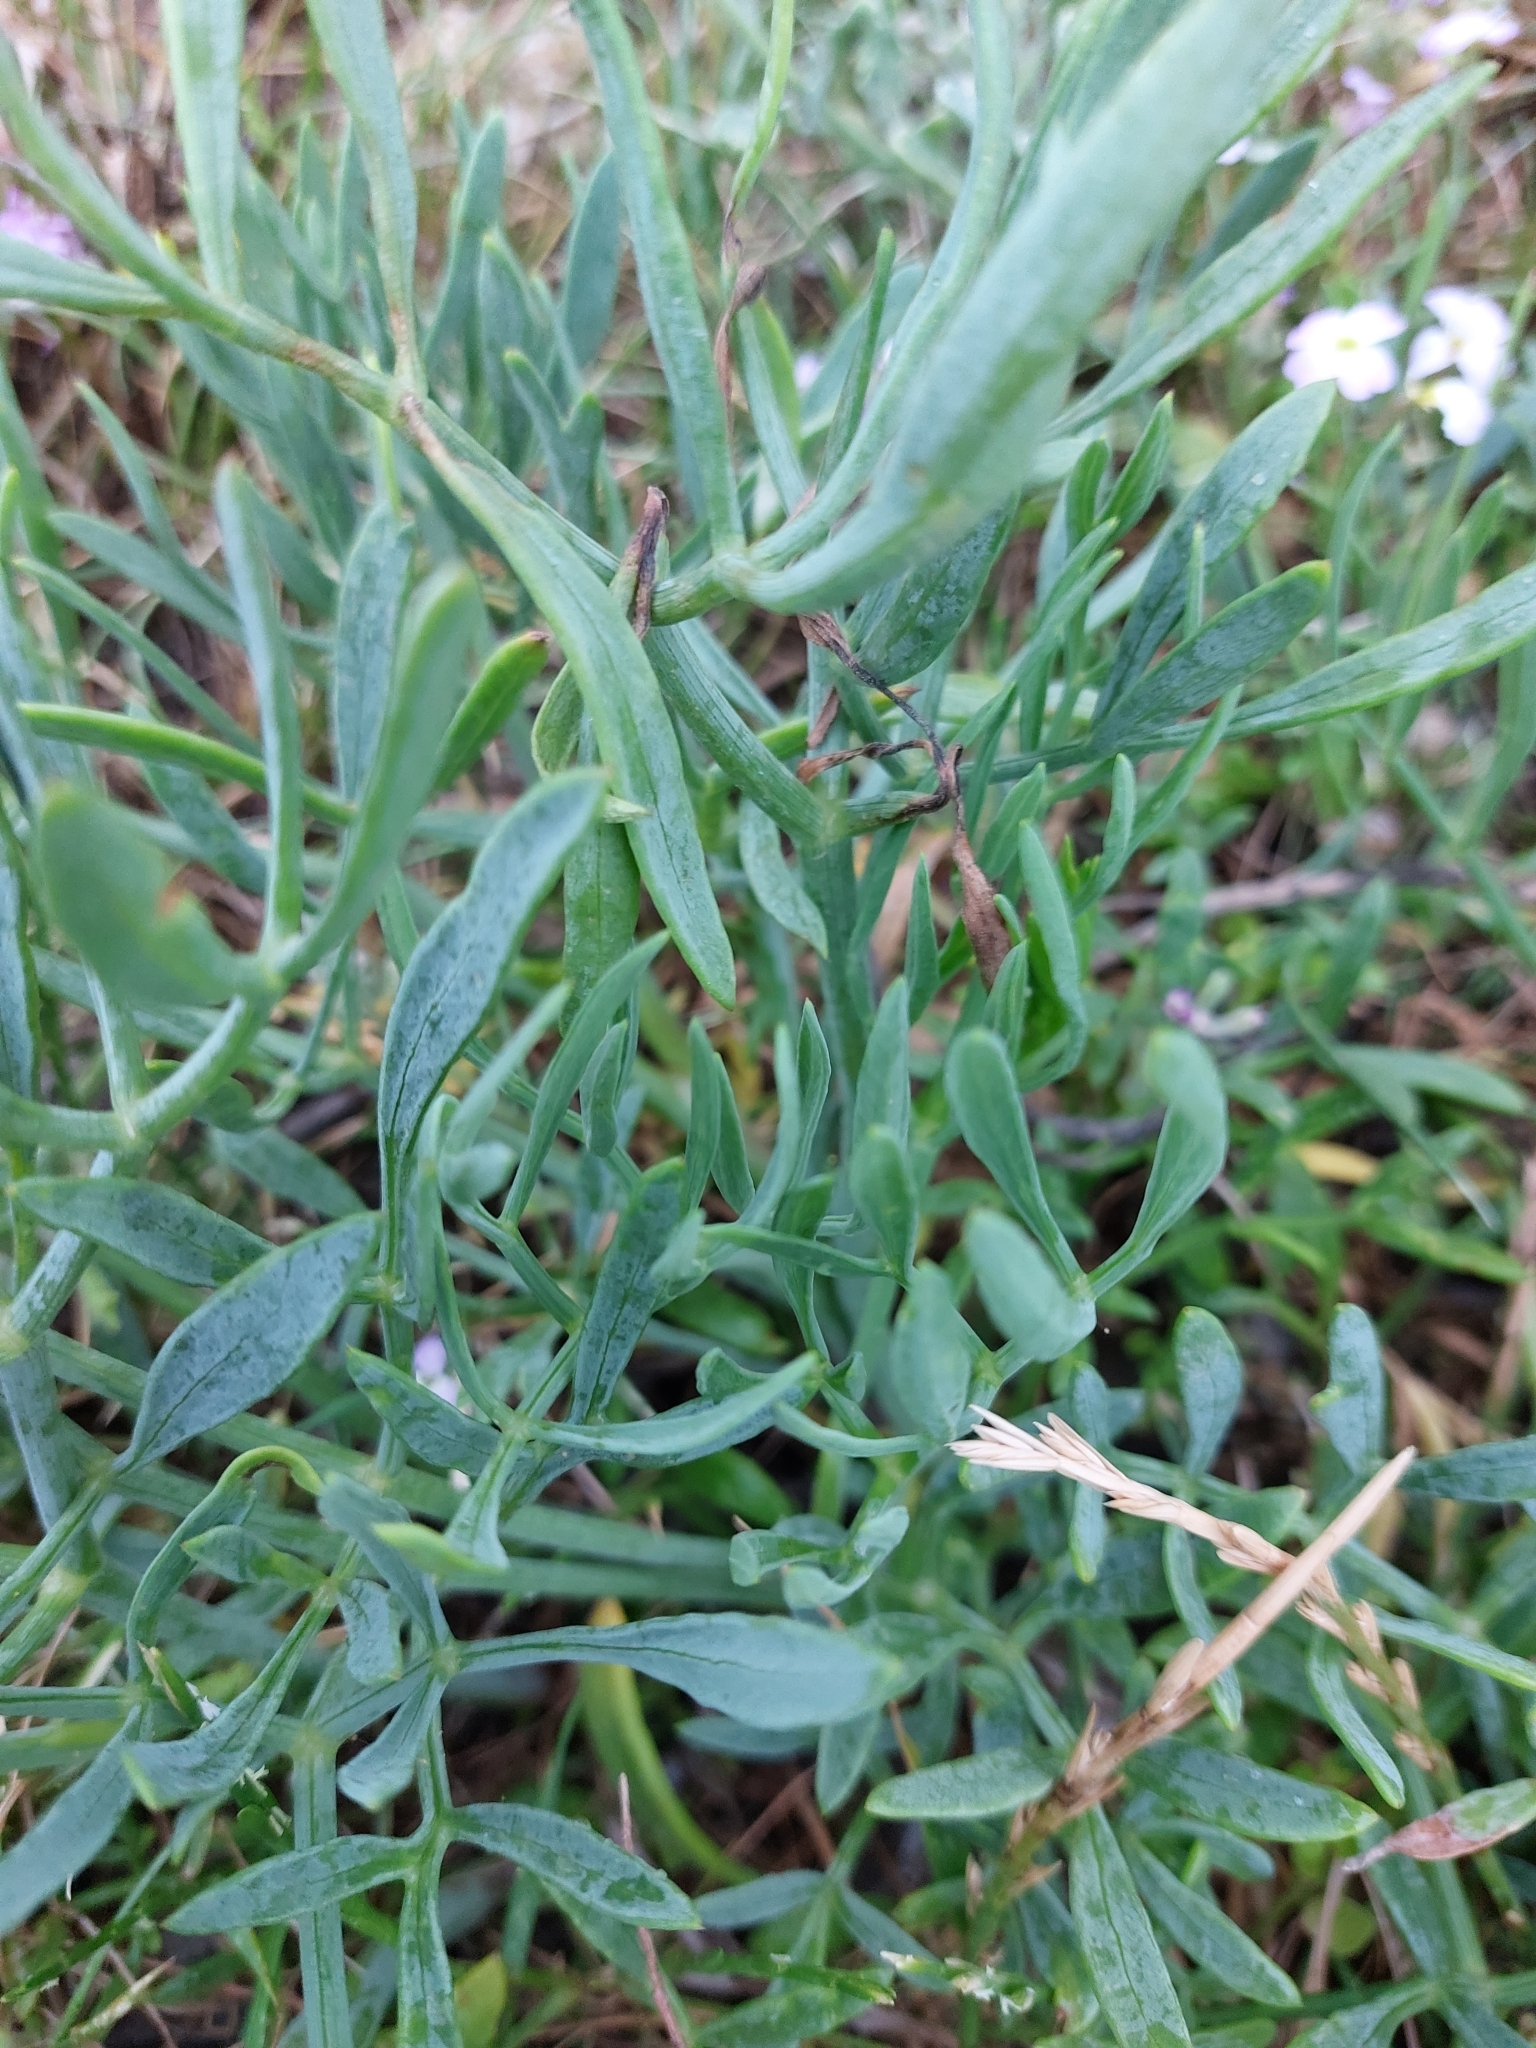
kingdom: Plantae
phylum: Tracheophyta
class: Magnoliopsida
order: Apiales
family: Apiaceae
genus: Crithmum
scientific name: Crithmum maritimum
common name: Rock samphire
